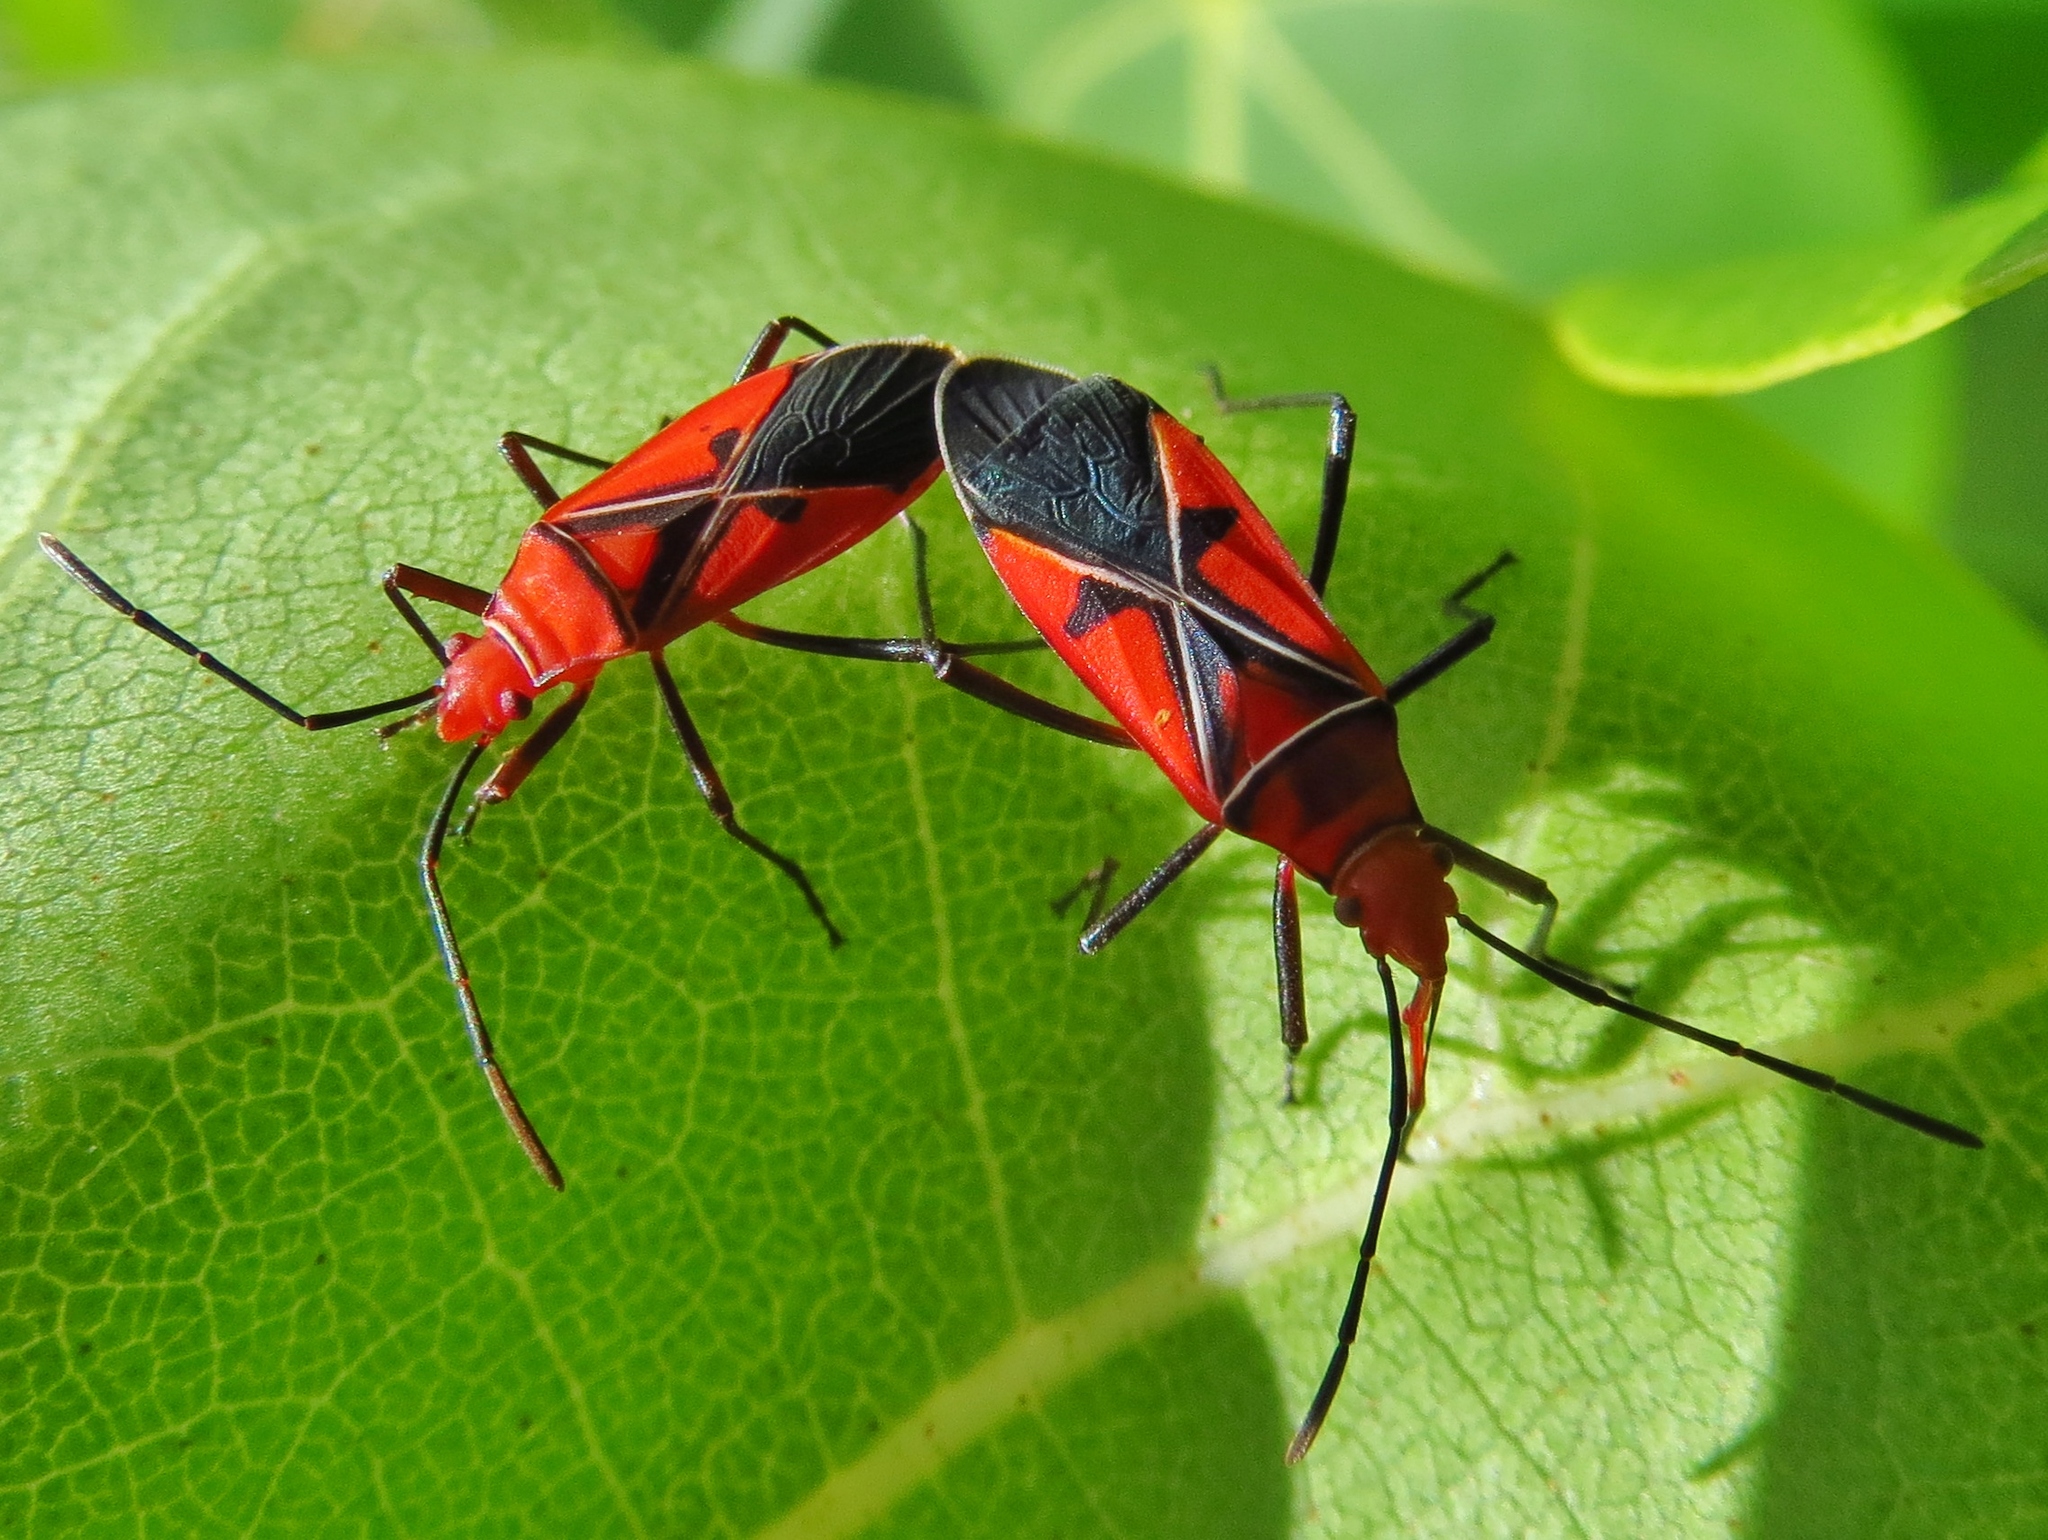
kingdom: Animalia
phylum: Arthropoda
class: Insecta
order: Hemiptera
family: Pyrrhocoridae
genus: Dysdercus
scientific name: Dysdercus andreae
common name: St. andrew's cotton stainer
